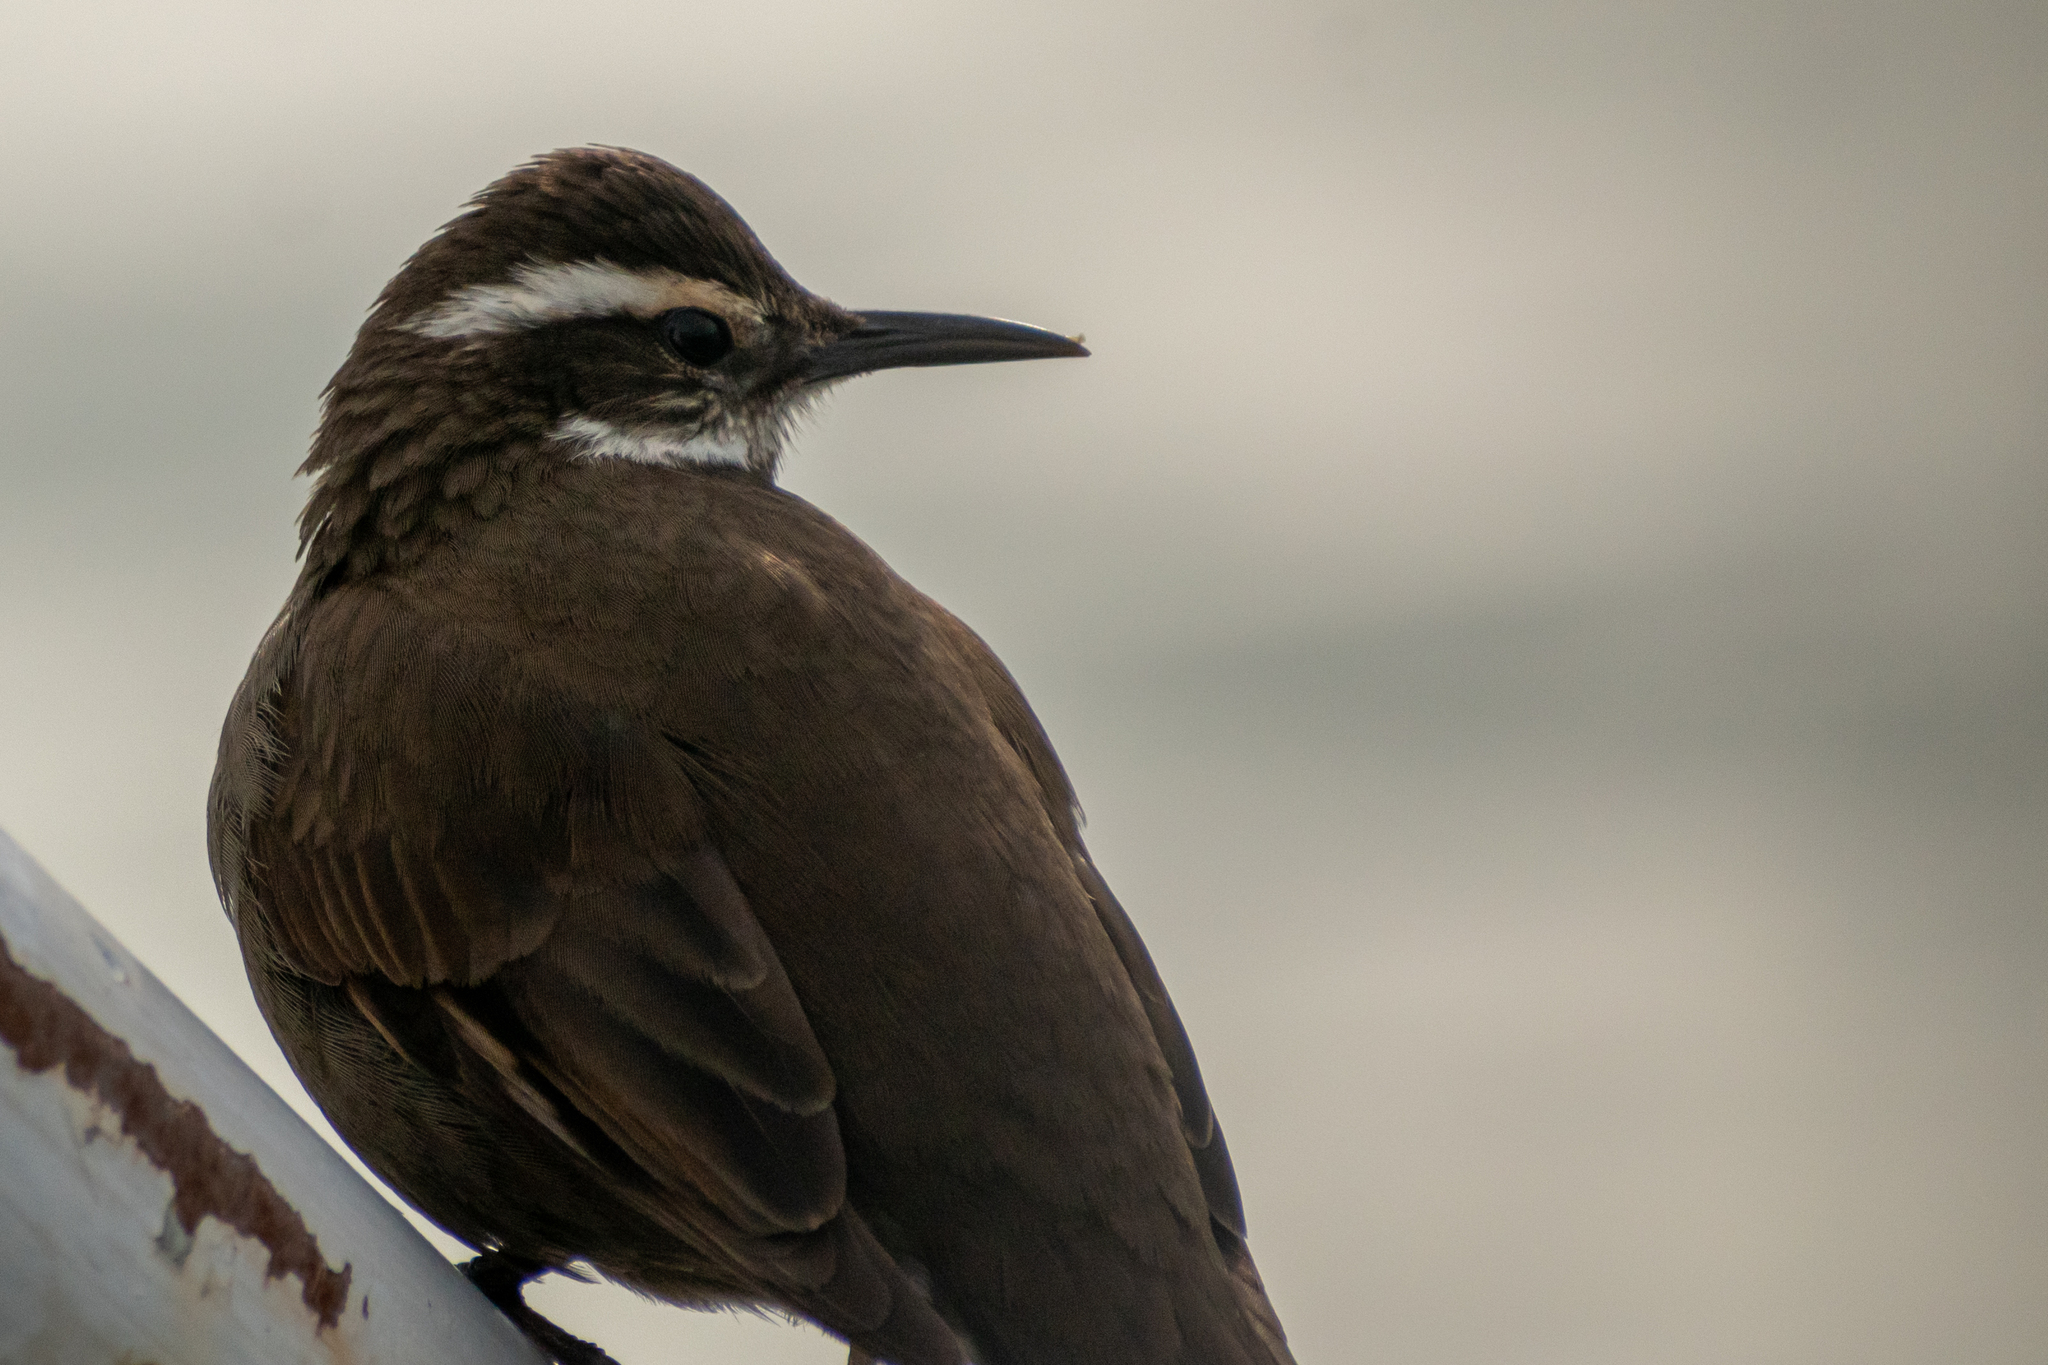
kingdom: Animalia
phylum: Chordata
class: Aves
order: Passeriformes
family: Furnariidae
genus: Cinclodes
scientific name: Cinclodes patagonicus
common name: Dark-bellied cinclodes
